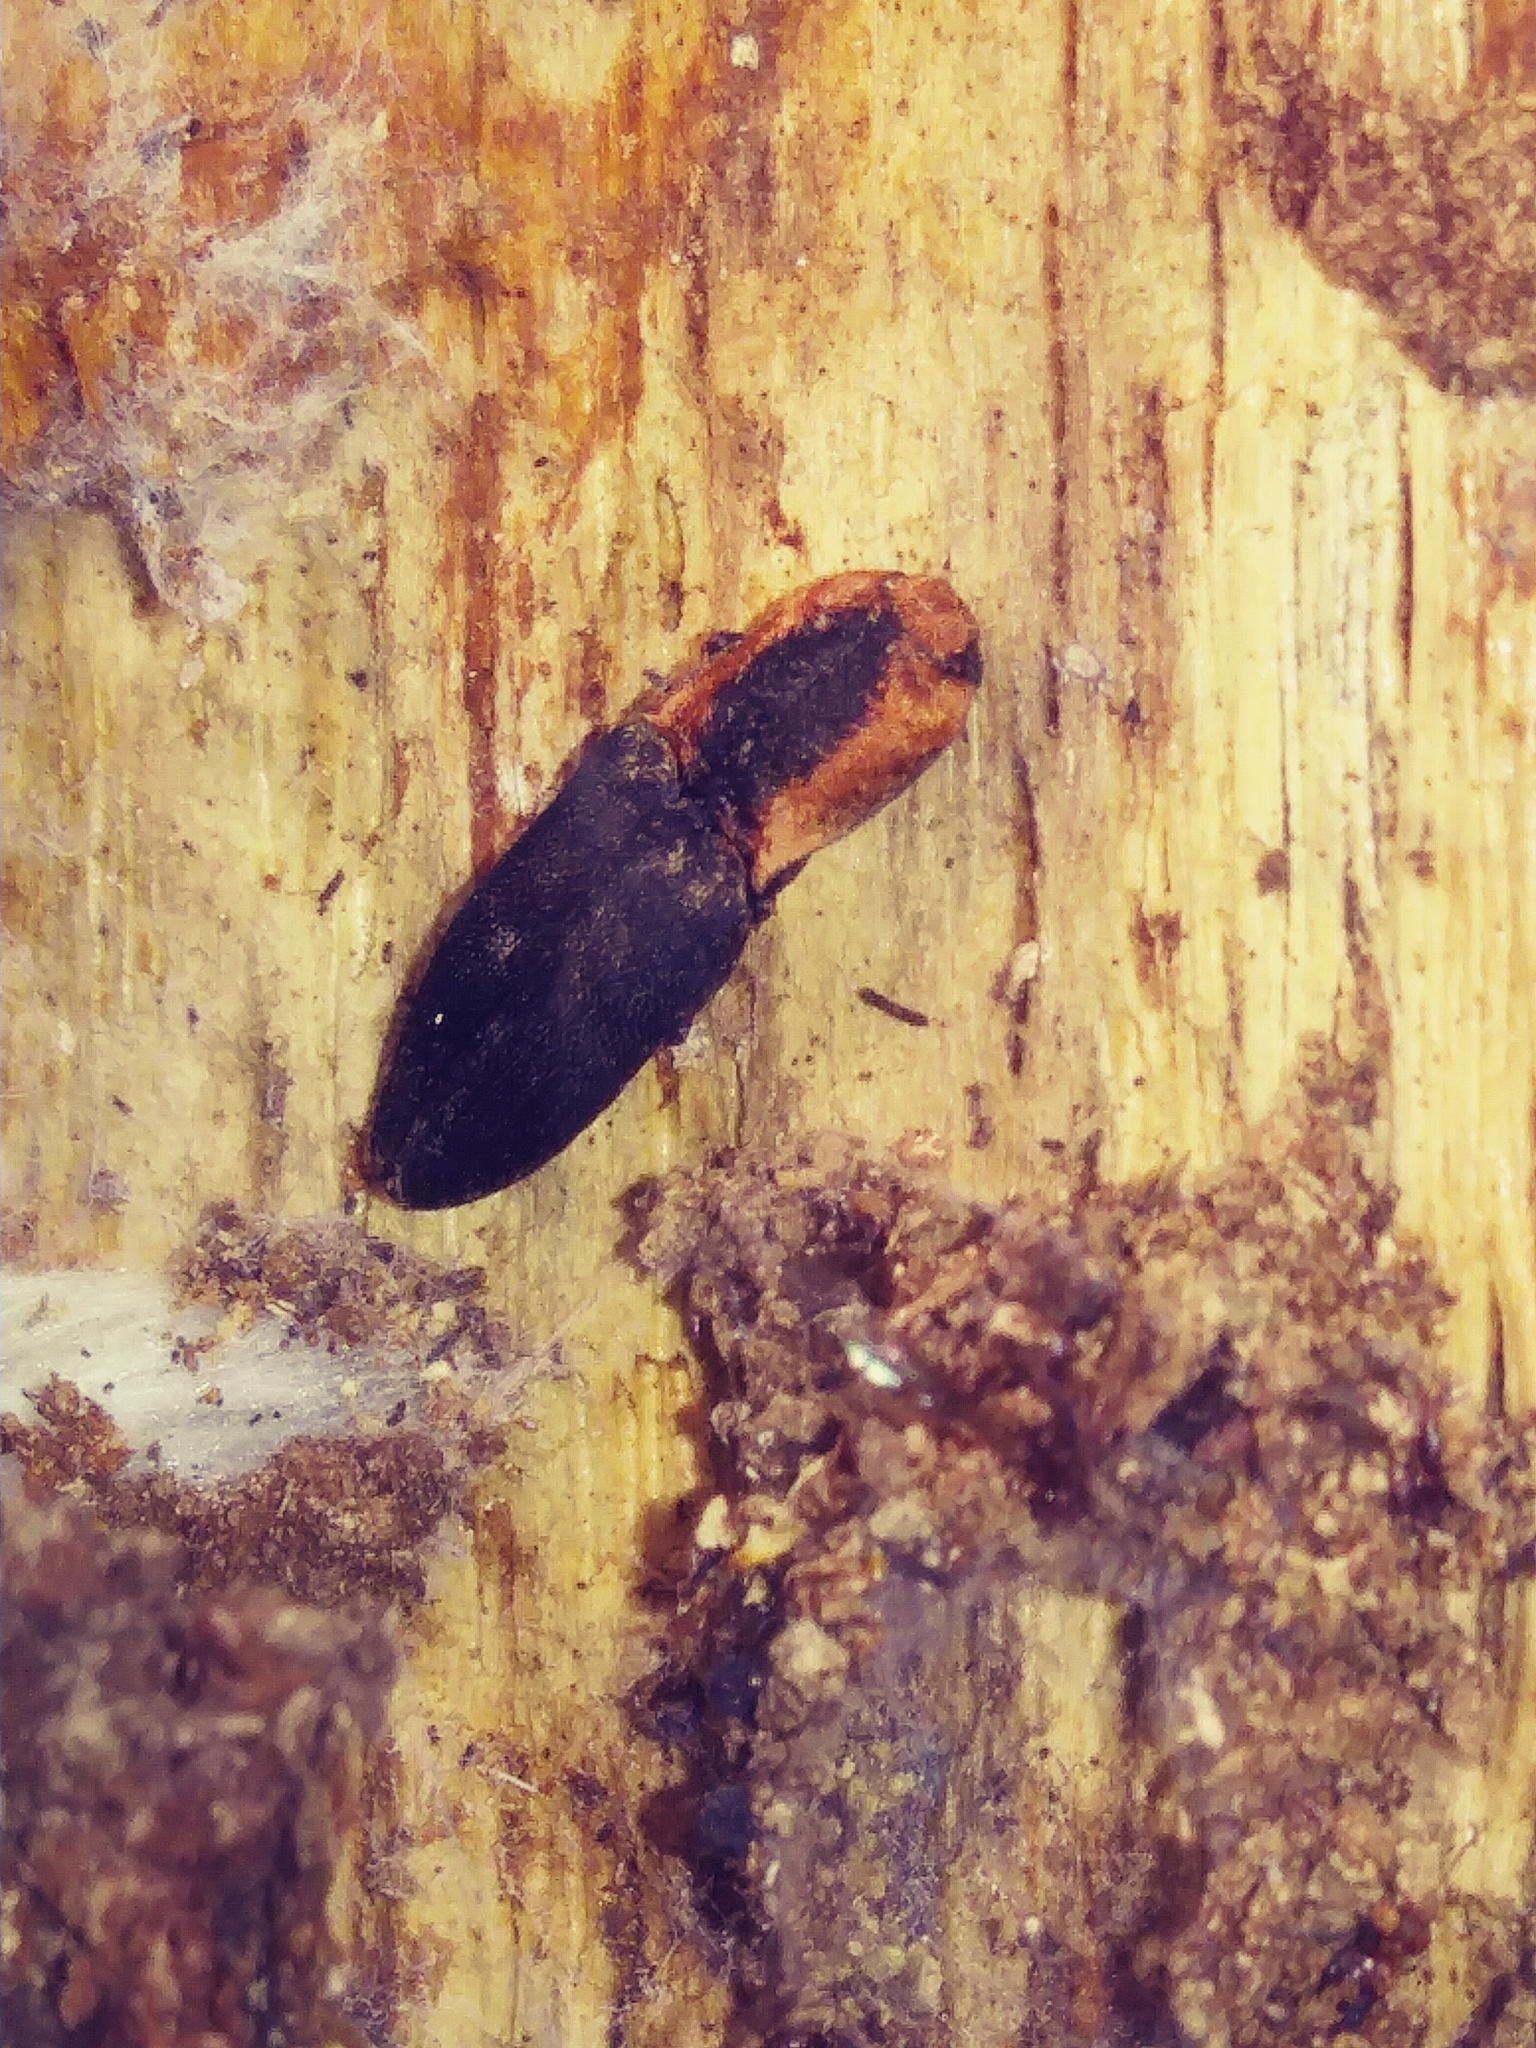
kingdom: Animalia
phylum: Arthropoda
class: Insecta
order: Coleoptera
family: Elateridae
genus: Lacon
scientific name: Lacon discoideus
